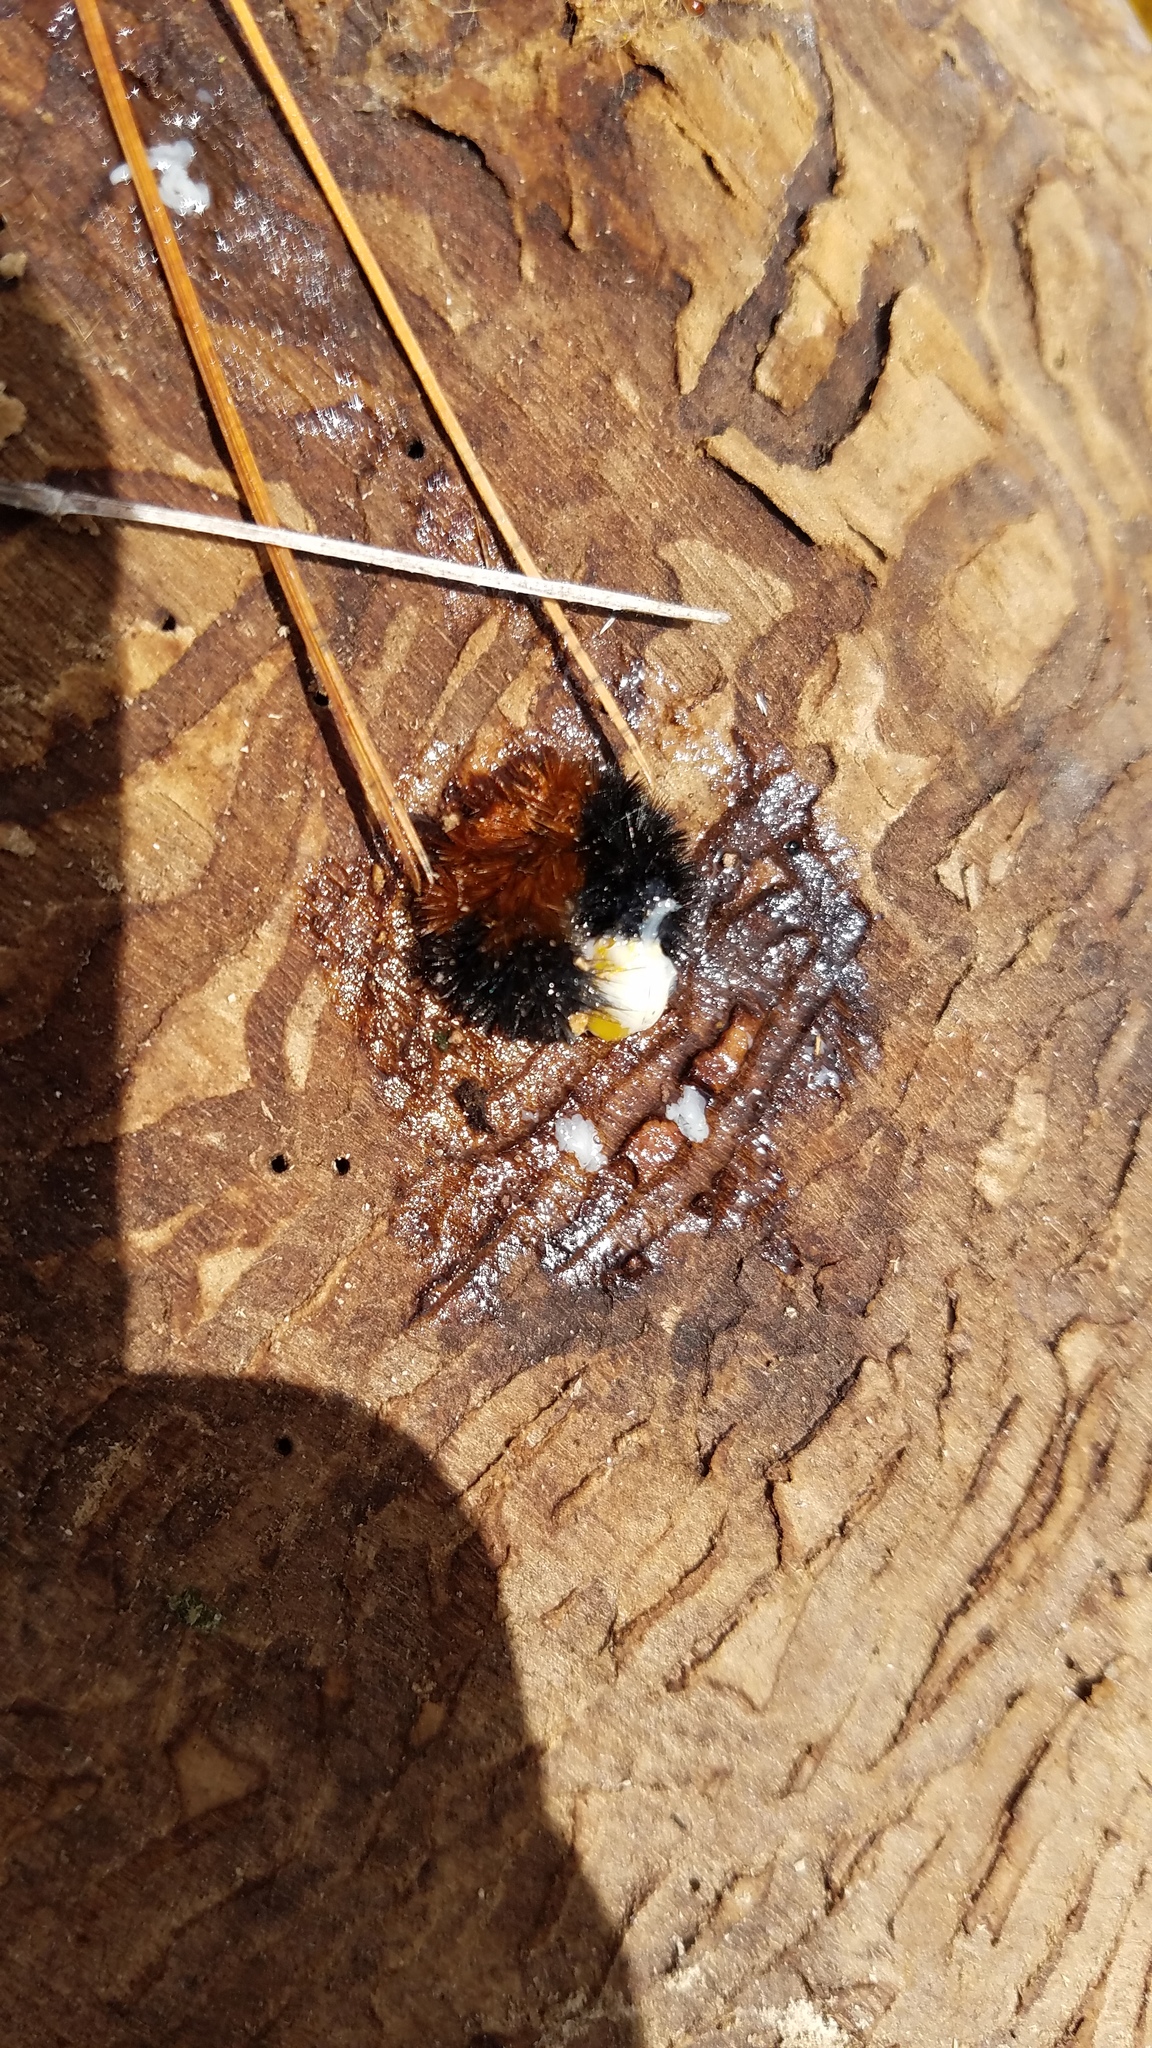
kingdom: Animalia
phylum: Arthropoda
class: Insecta
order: Lepidoptera
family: Erebidae
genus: Pyrrharctia
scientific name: Pyrrharctia isabella
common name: Isabella tiger moth
